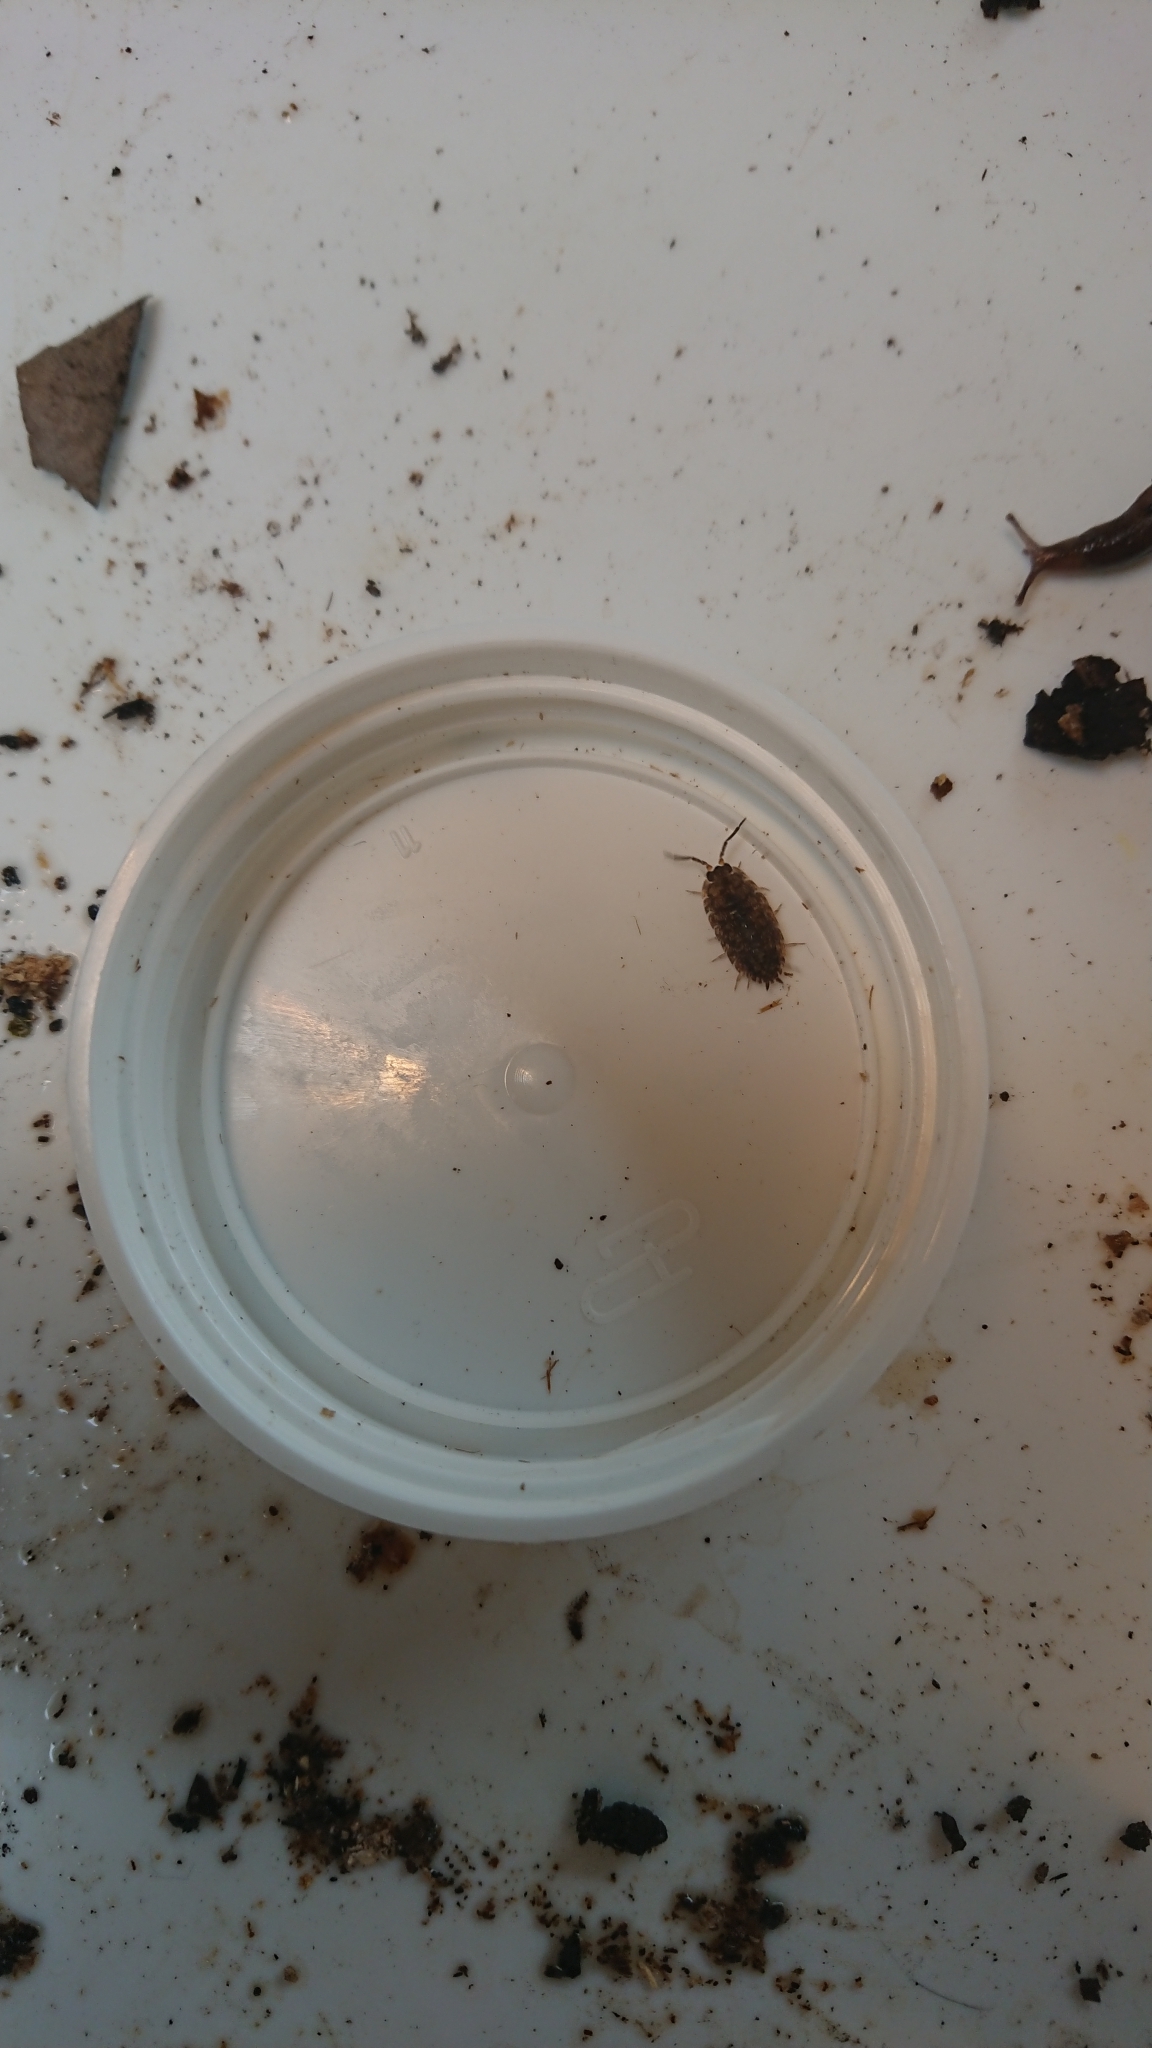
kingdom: Animalia
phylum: Arthropoda
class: Malacostraca
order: Isopoda
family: Porcellionidae
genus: Porcellio
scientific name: Porcellio scaber
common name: Common rough woodlouse
